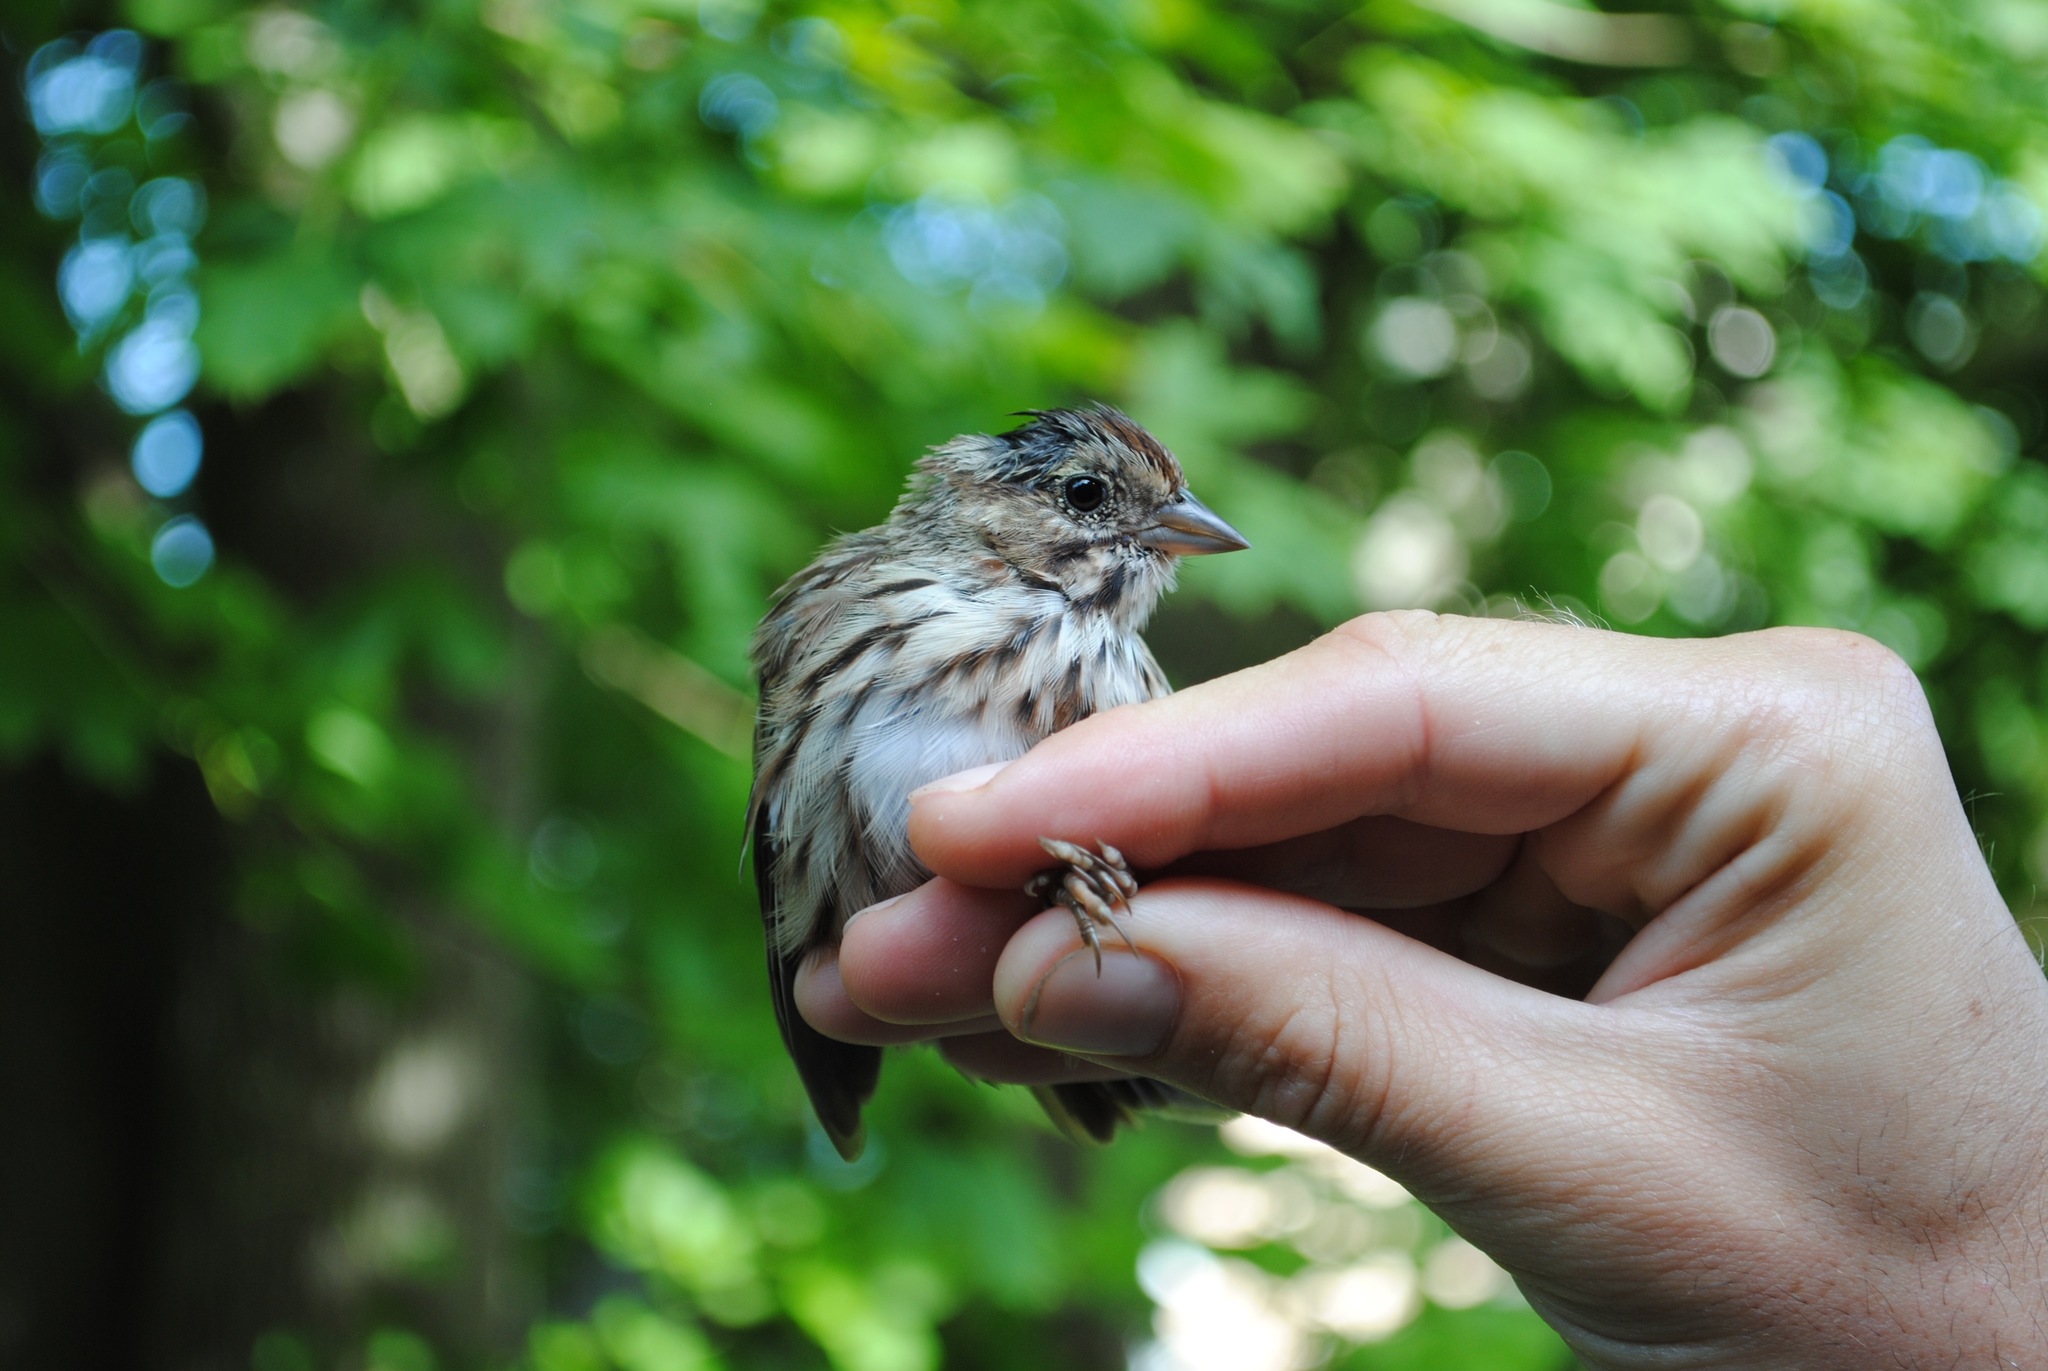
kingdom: Animalia
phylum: Chordata
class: Aves
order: Passeriformes
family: Passerellidae
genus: Melospiza
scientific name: Melospiza melodia
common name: Song sparrow
